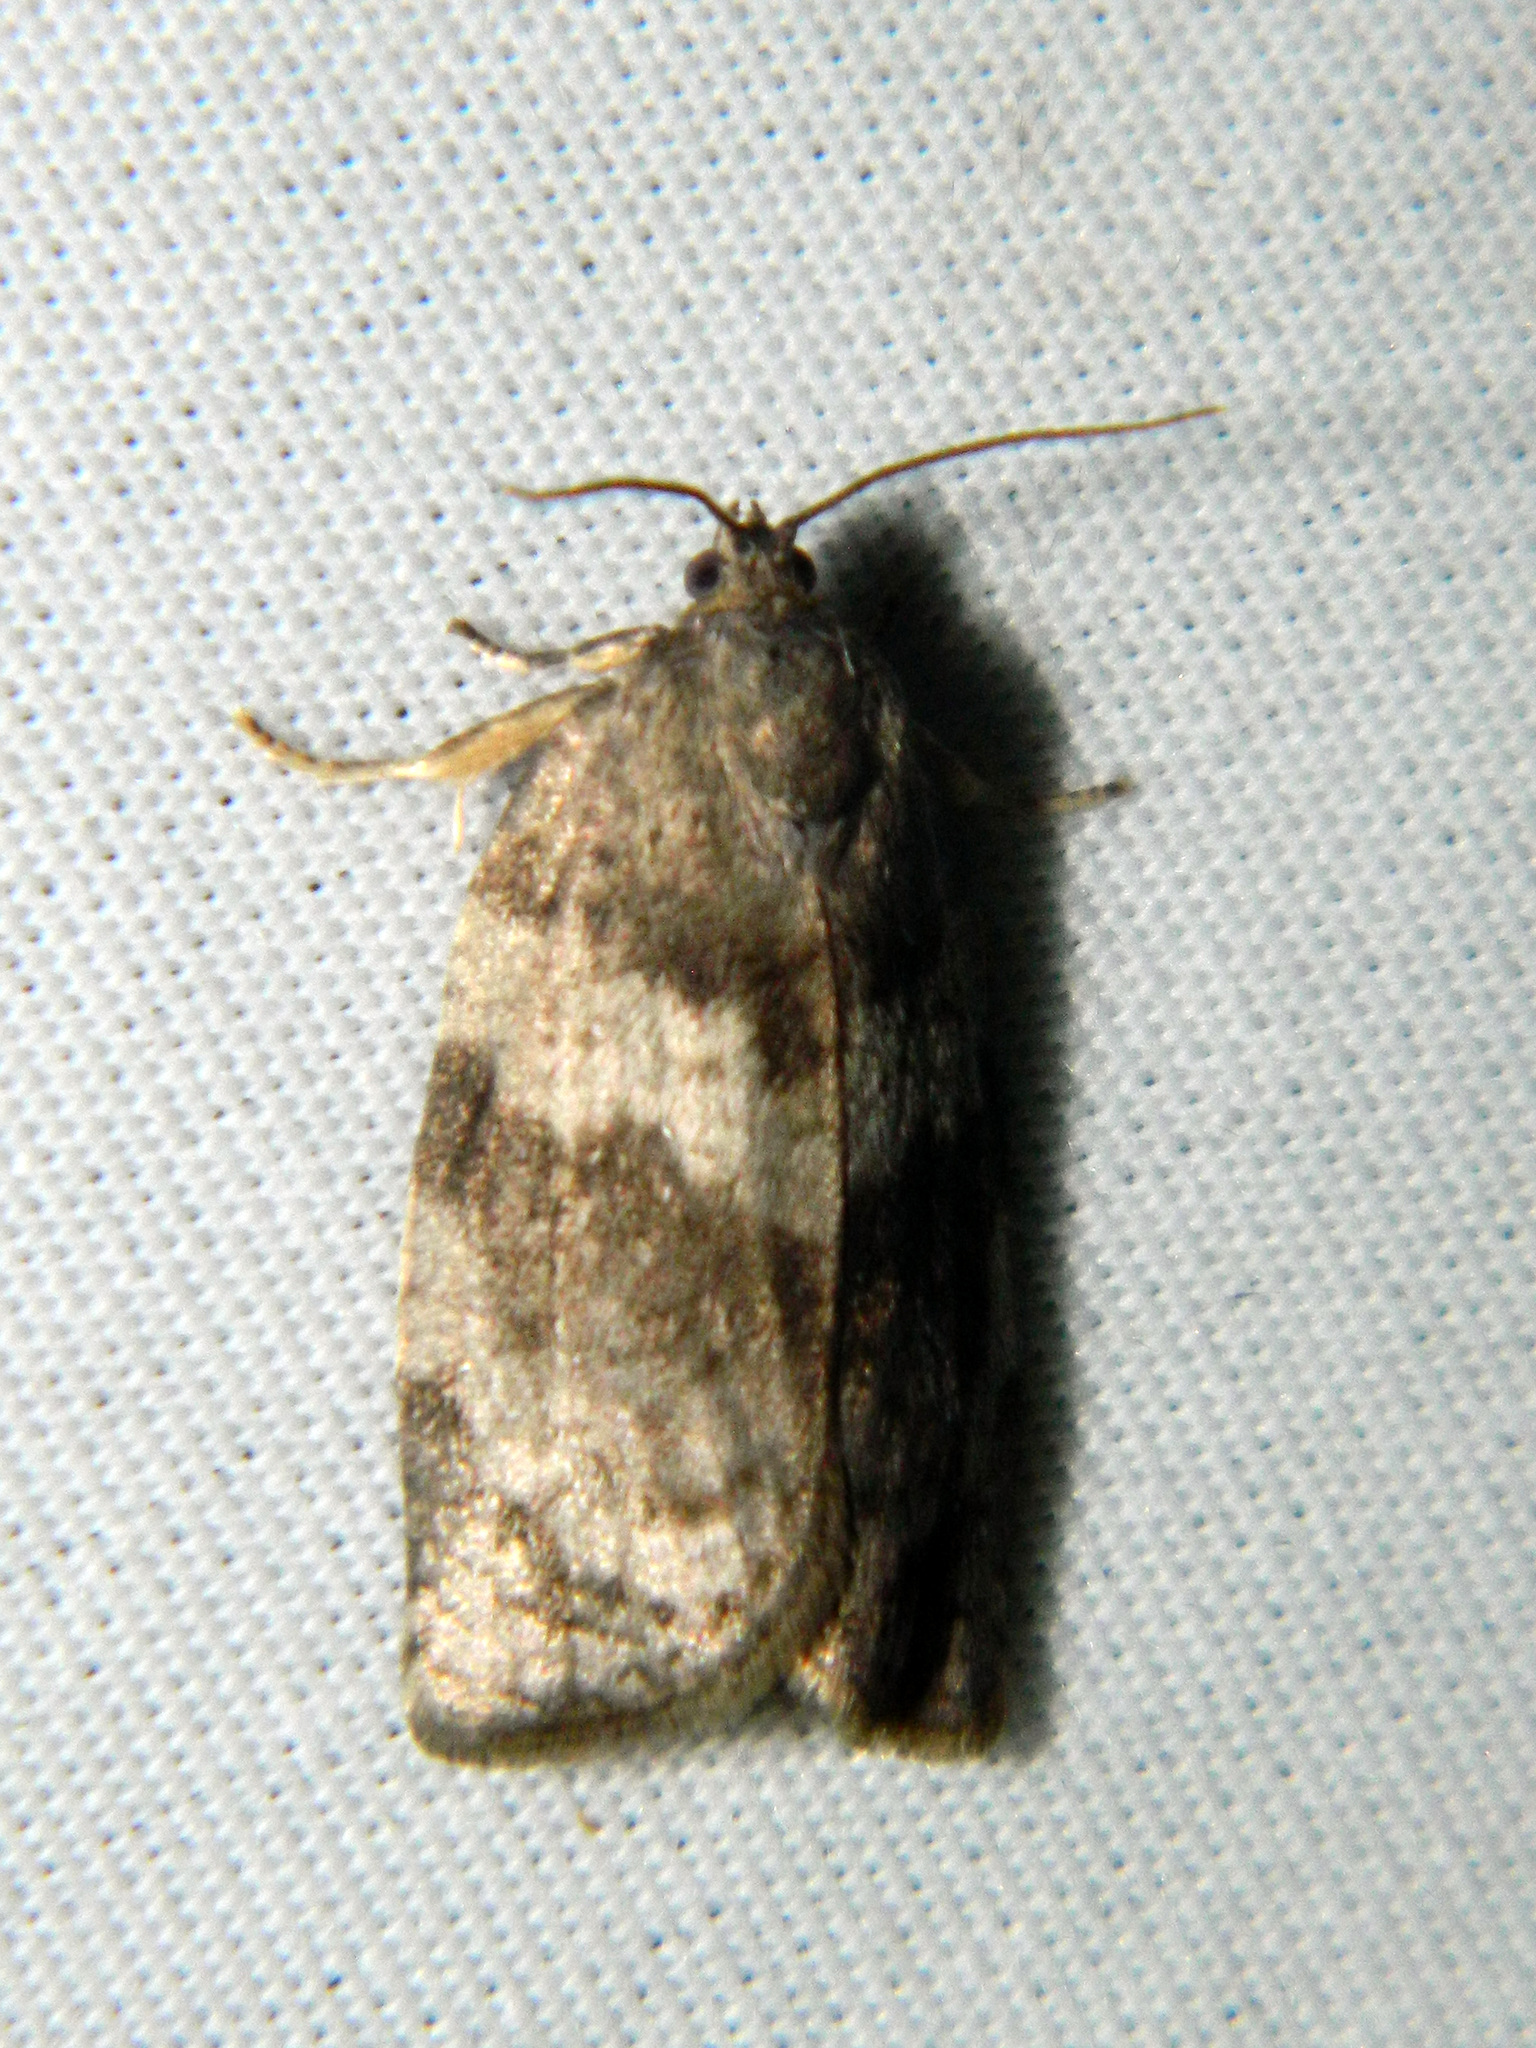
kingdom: Animalia
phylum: Arthropoda
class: Insecta
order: Lepidoptera
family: Tortricidae
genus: Choristoneura
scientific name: Choristoneura conflictana
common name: Large aspen tortrix
